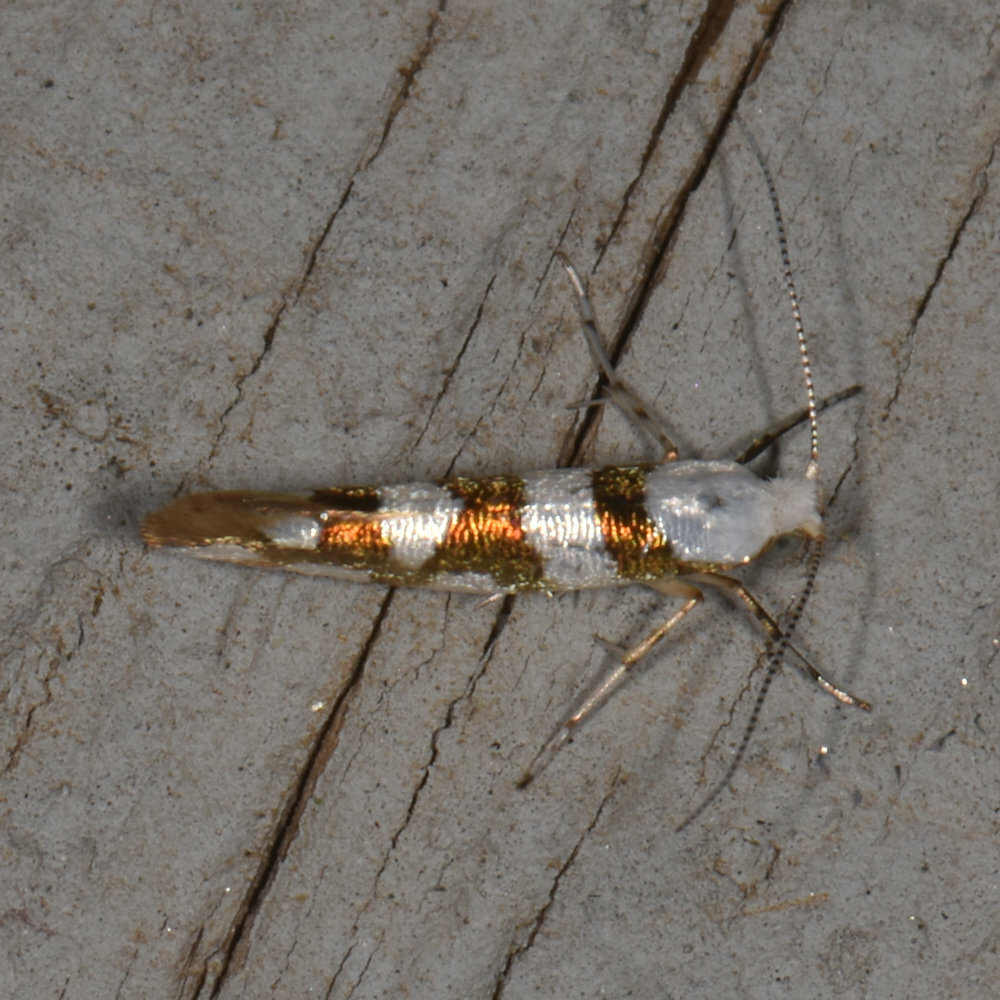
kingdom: Animalia
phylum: Arthropoda
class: Insecta
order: Lepidoptera
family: Argyresthiidae
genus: Argyresthia
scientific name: Argyresthia calliphanes
